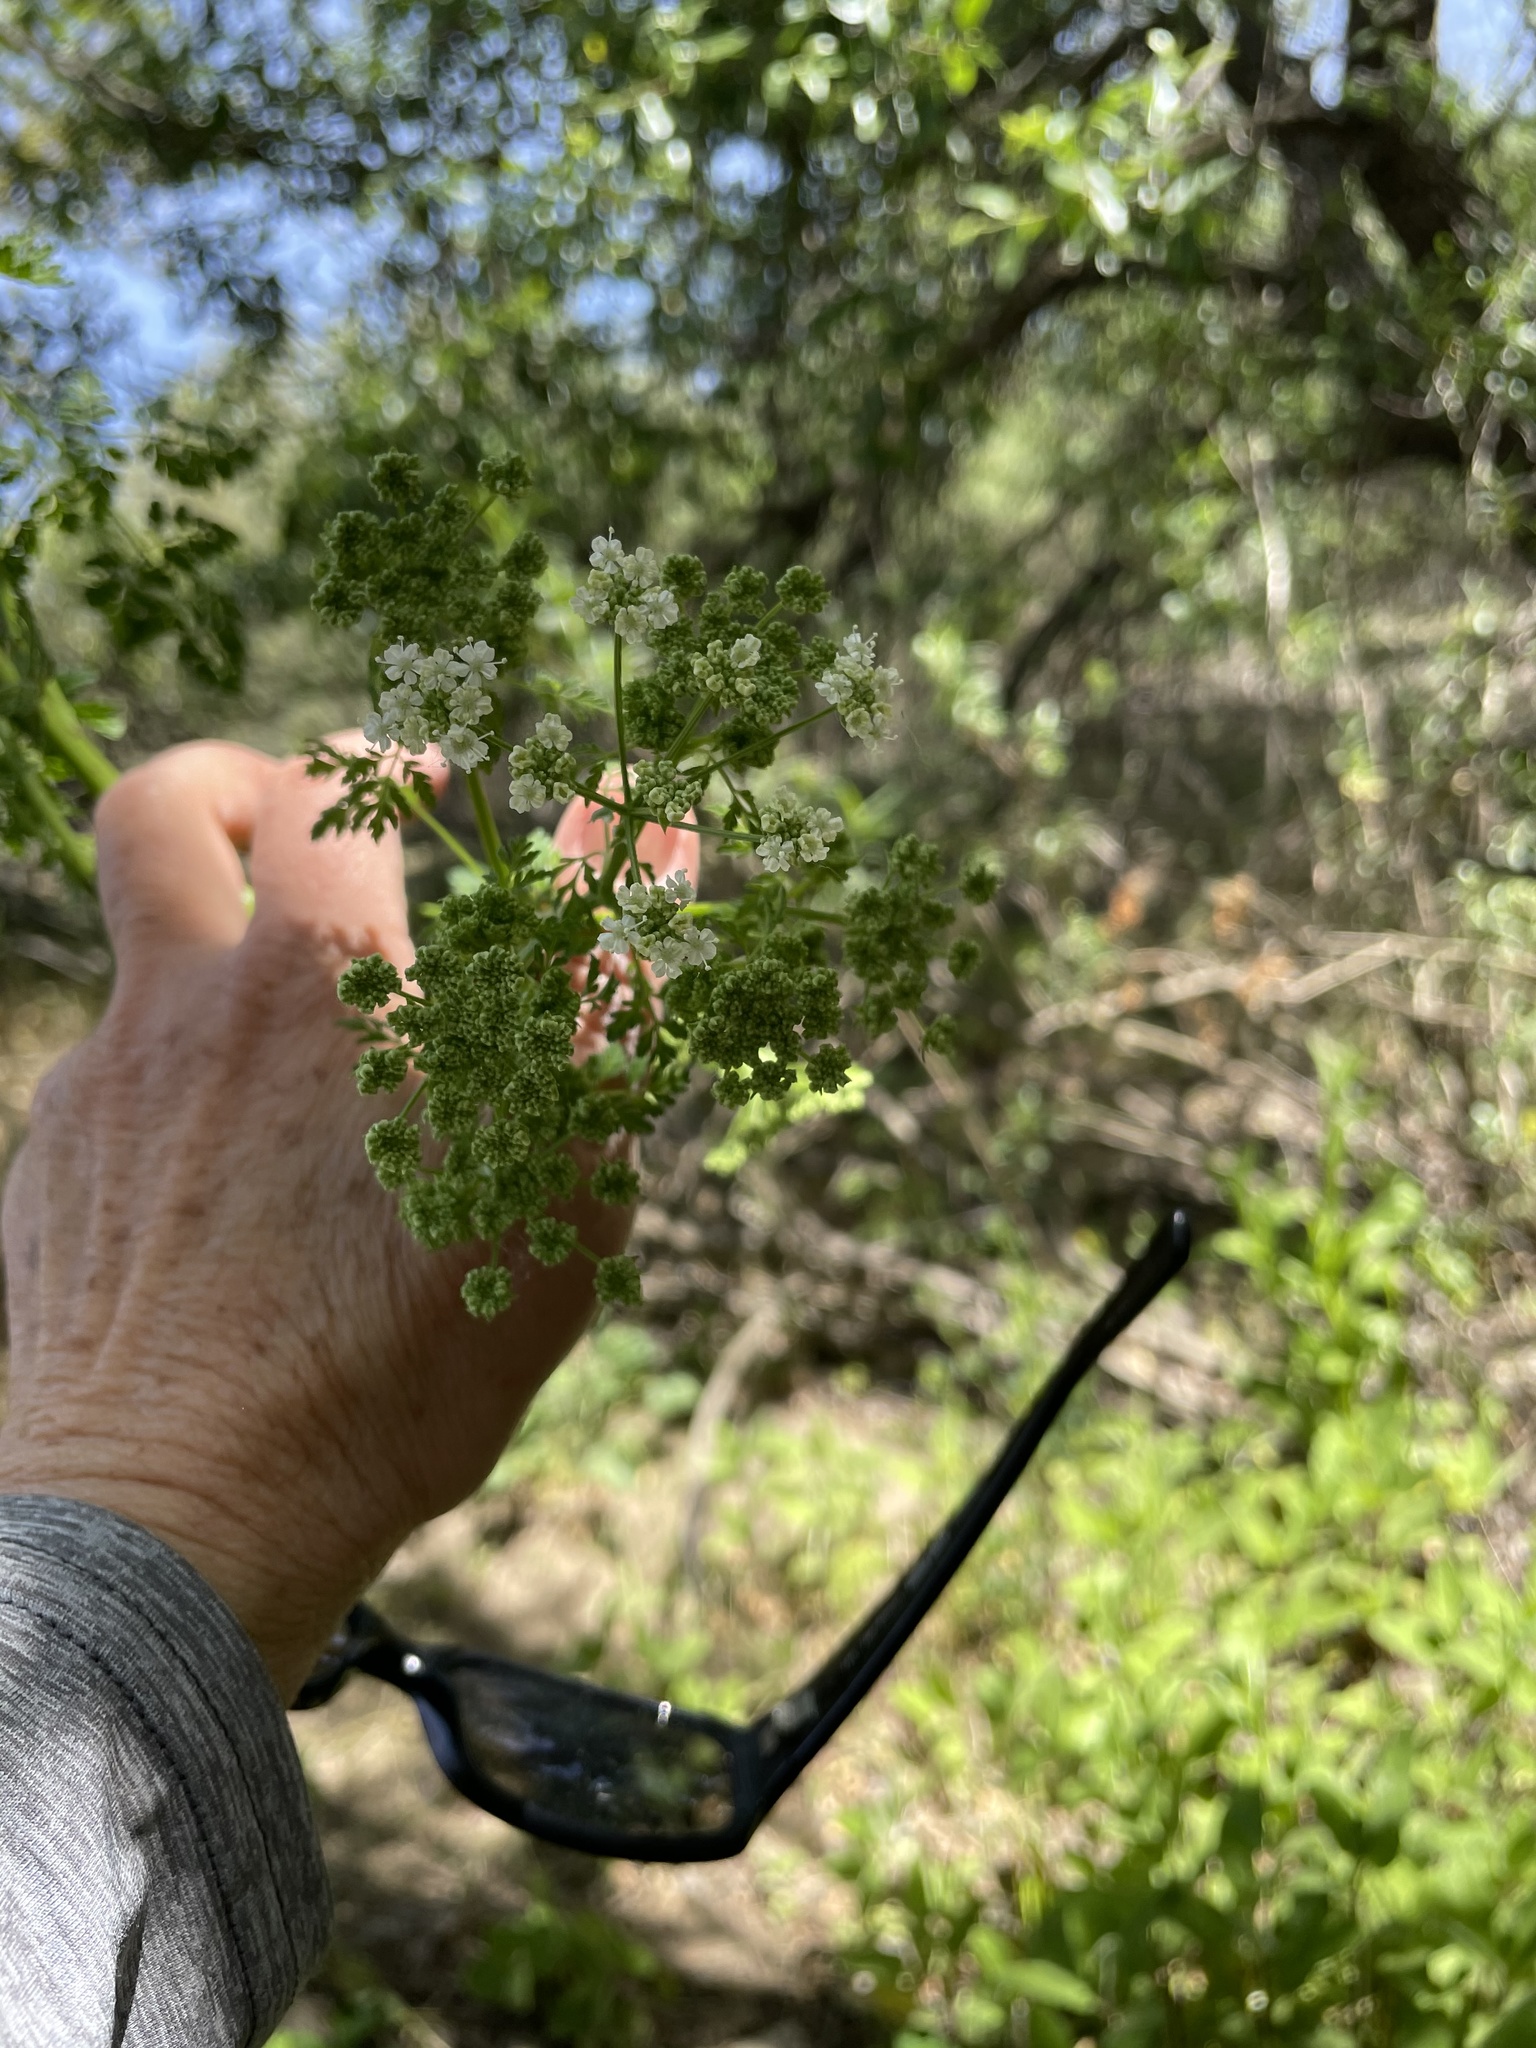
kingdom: Plantae
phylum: Tracheophyta
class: Magnoliopsida
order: Apiales
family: Apiaceae
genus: Conium
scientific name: Conium maculatum
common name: Hemlock
